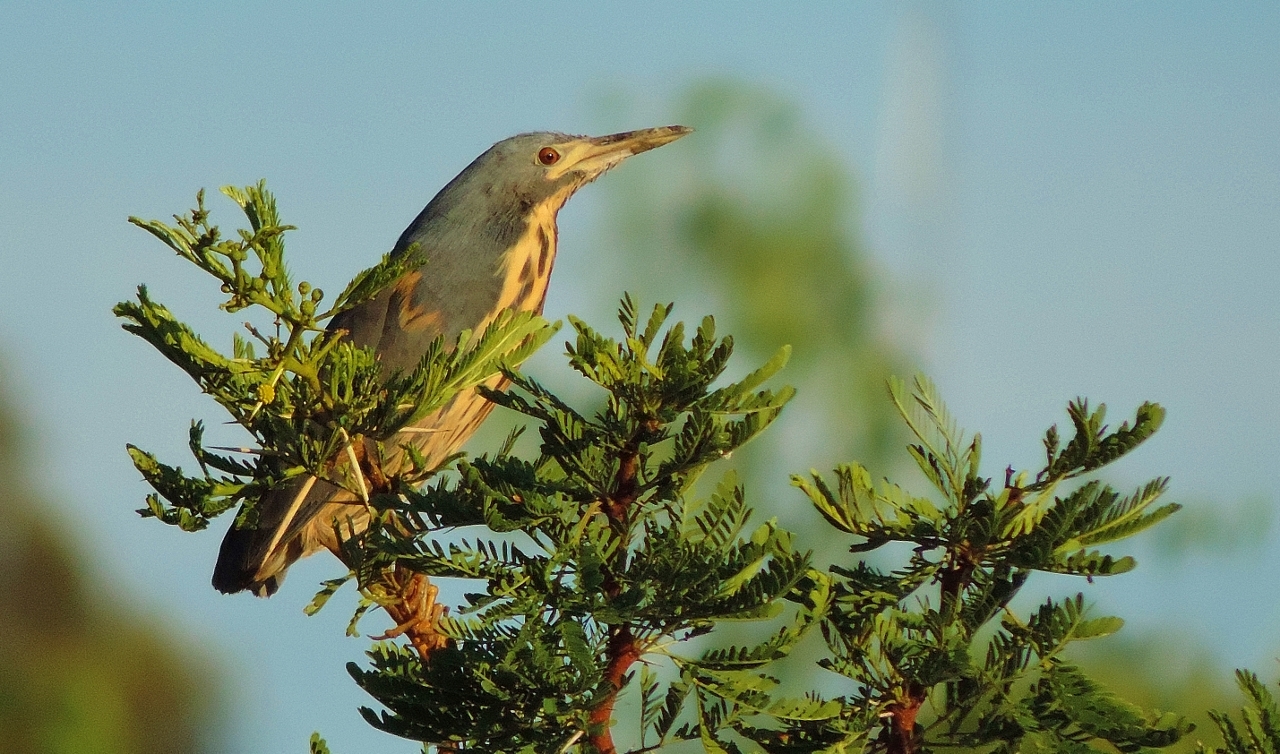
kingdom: Animalia
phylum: Chordata
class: Aves
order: Pelecaniformes
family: Ardeidae
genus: Ixobrychus
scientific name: Ixobrychus sturmii
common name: Dwarf bittern
